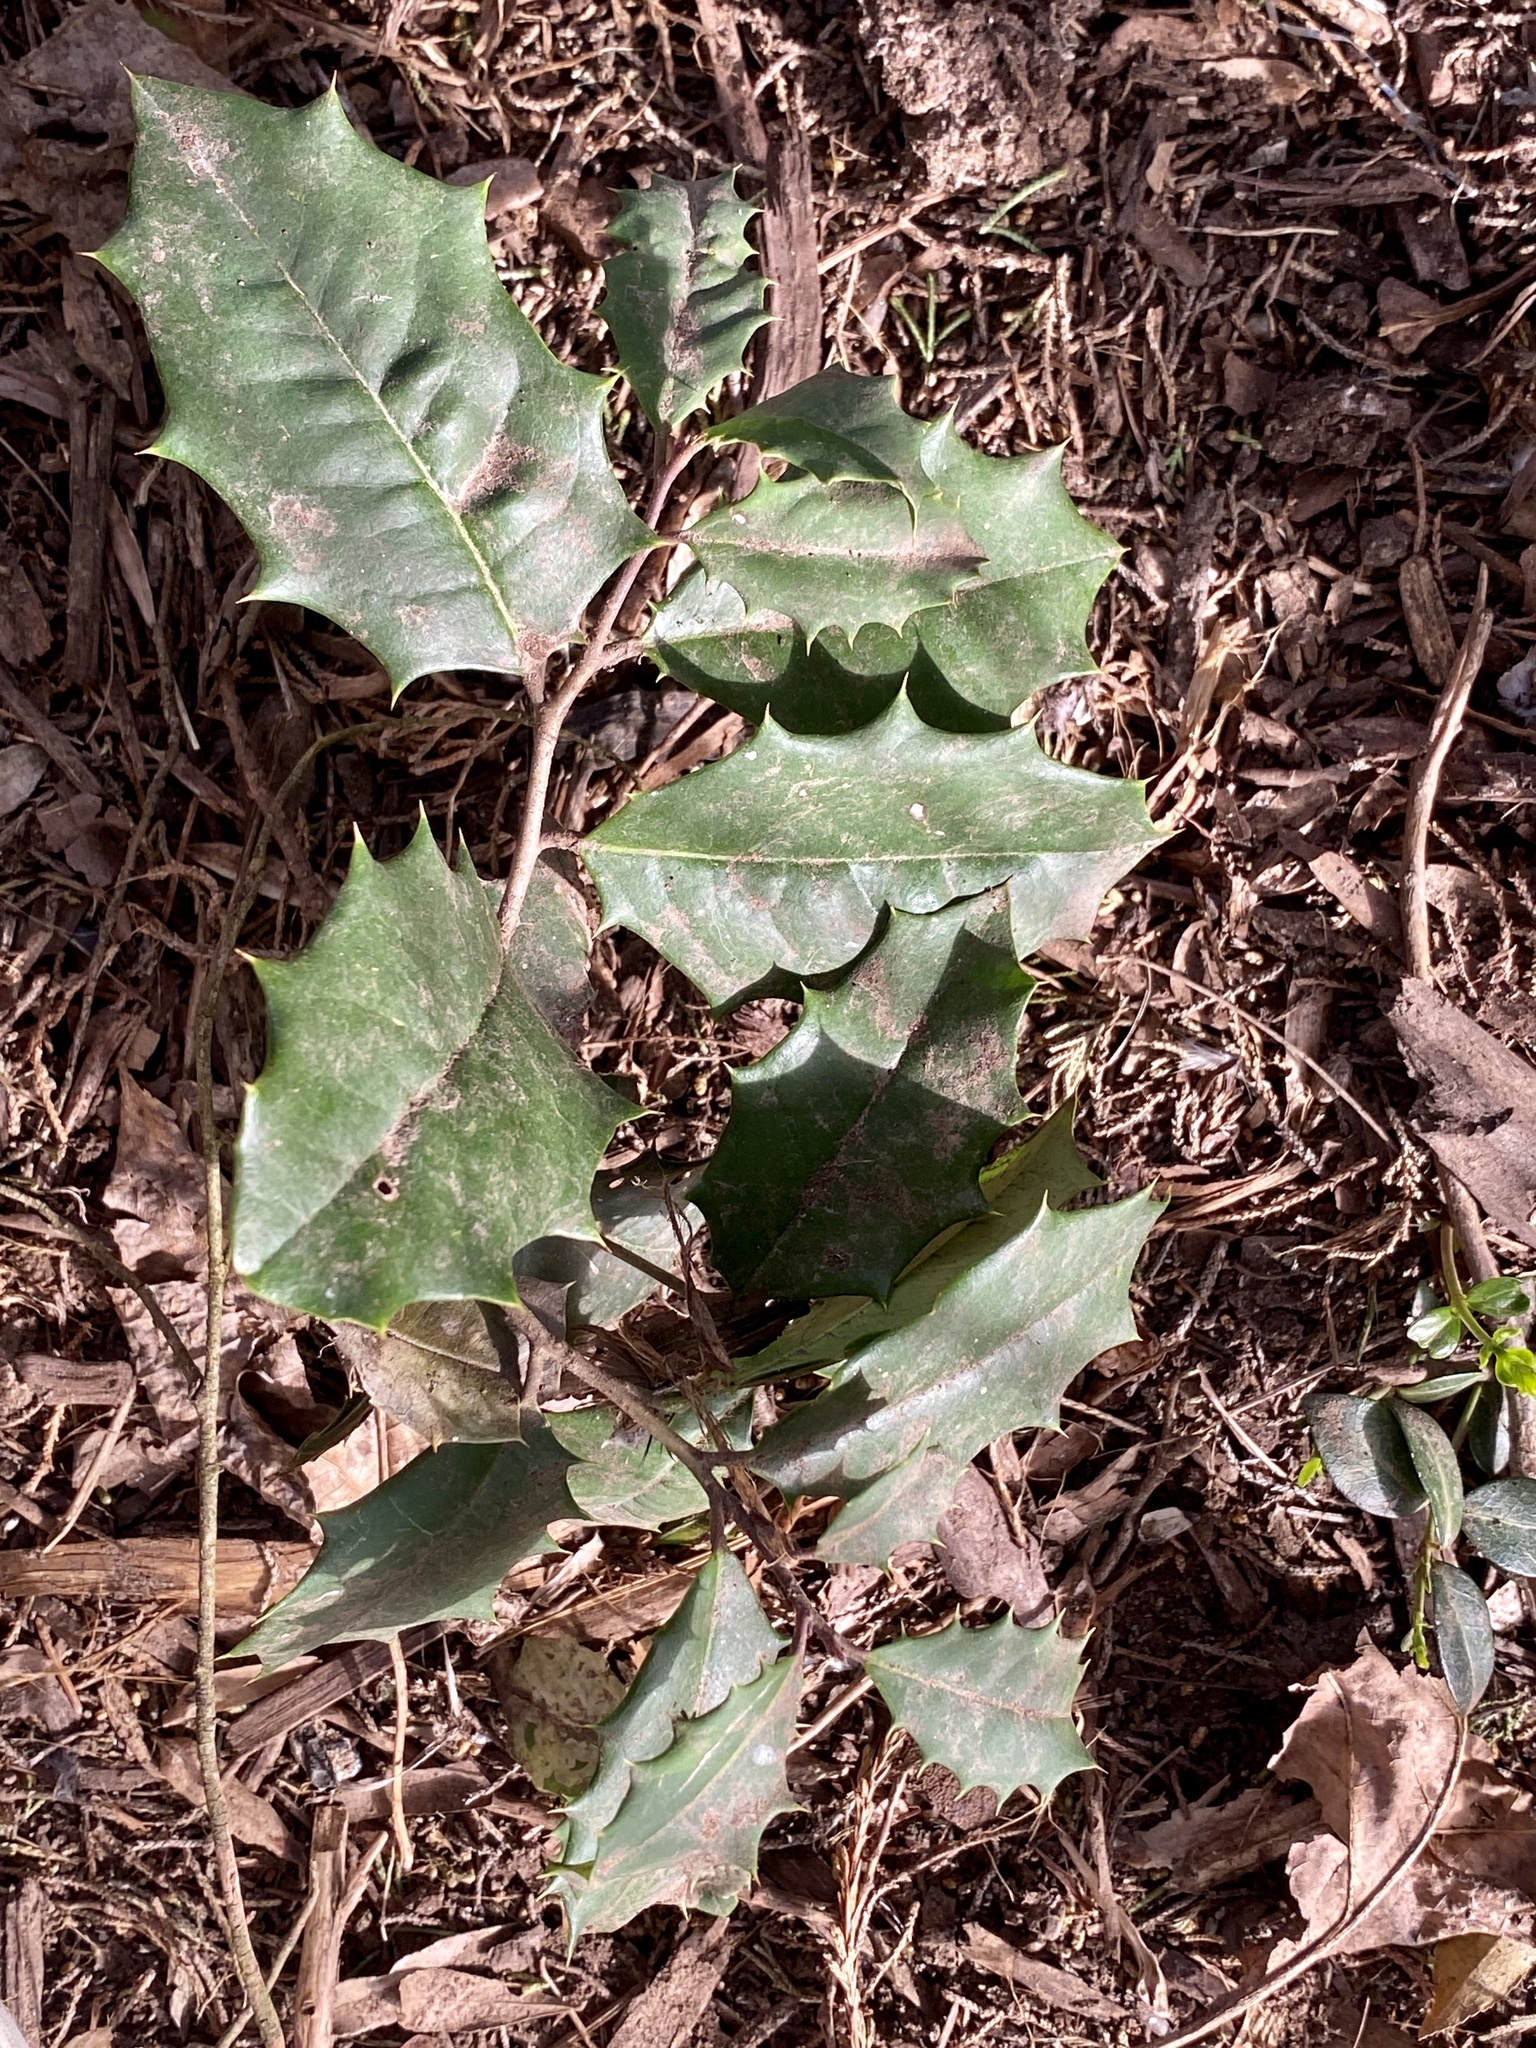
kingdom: Plantae
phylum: Tracheophyta
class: Magnoliopsida
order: Aquifoliales
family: Aquifoliaceae
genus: Ilex
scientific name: Ilex opaca
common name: American holly
